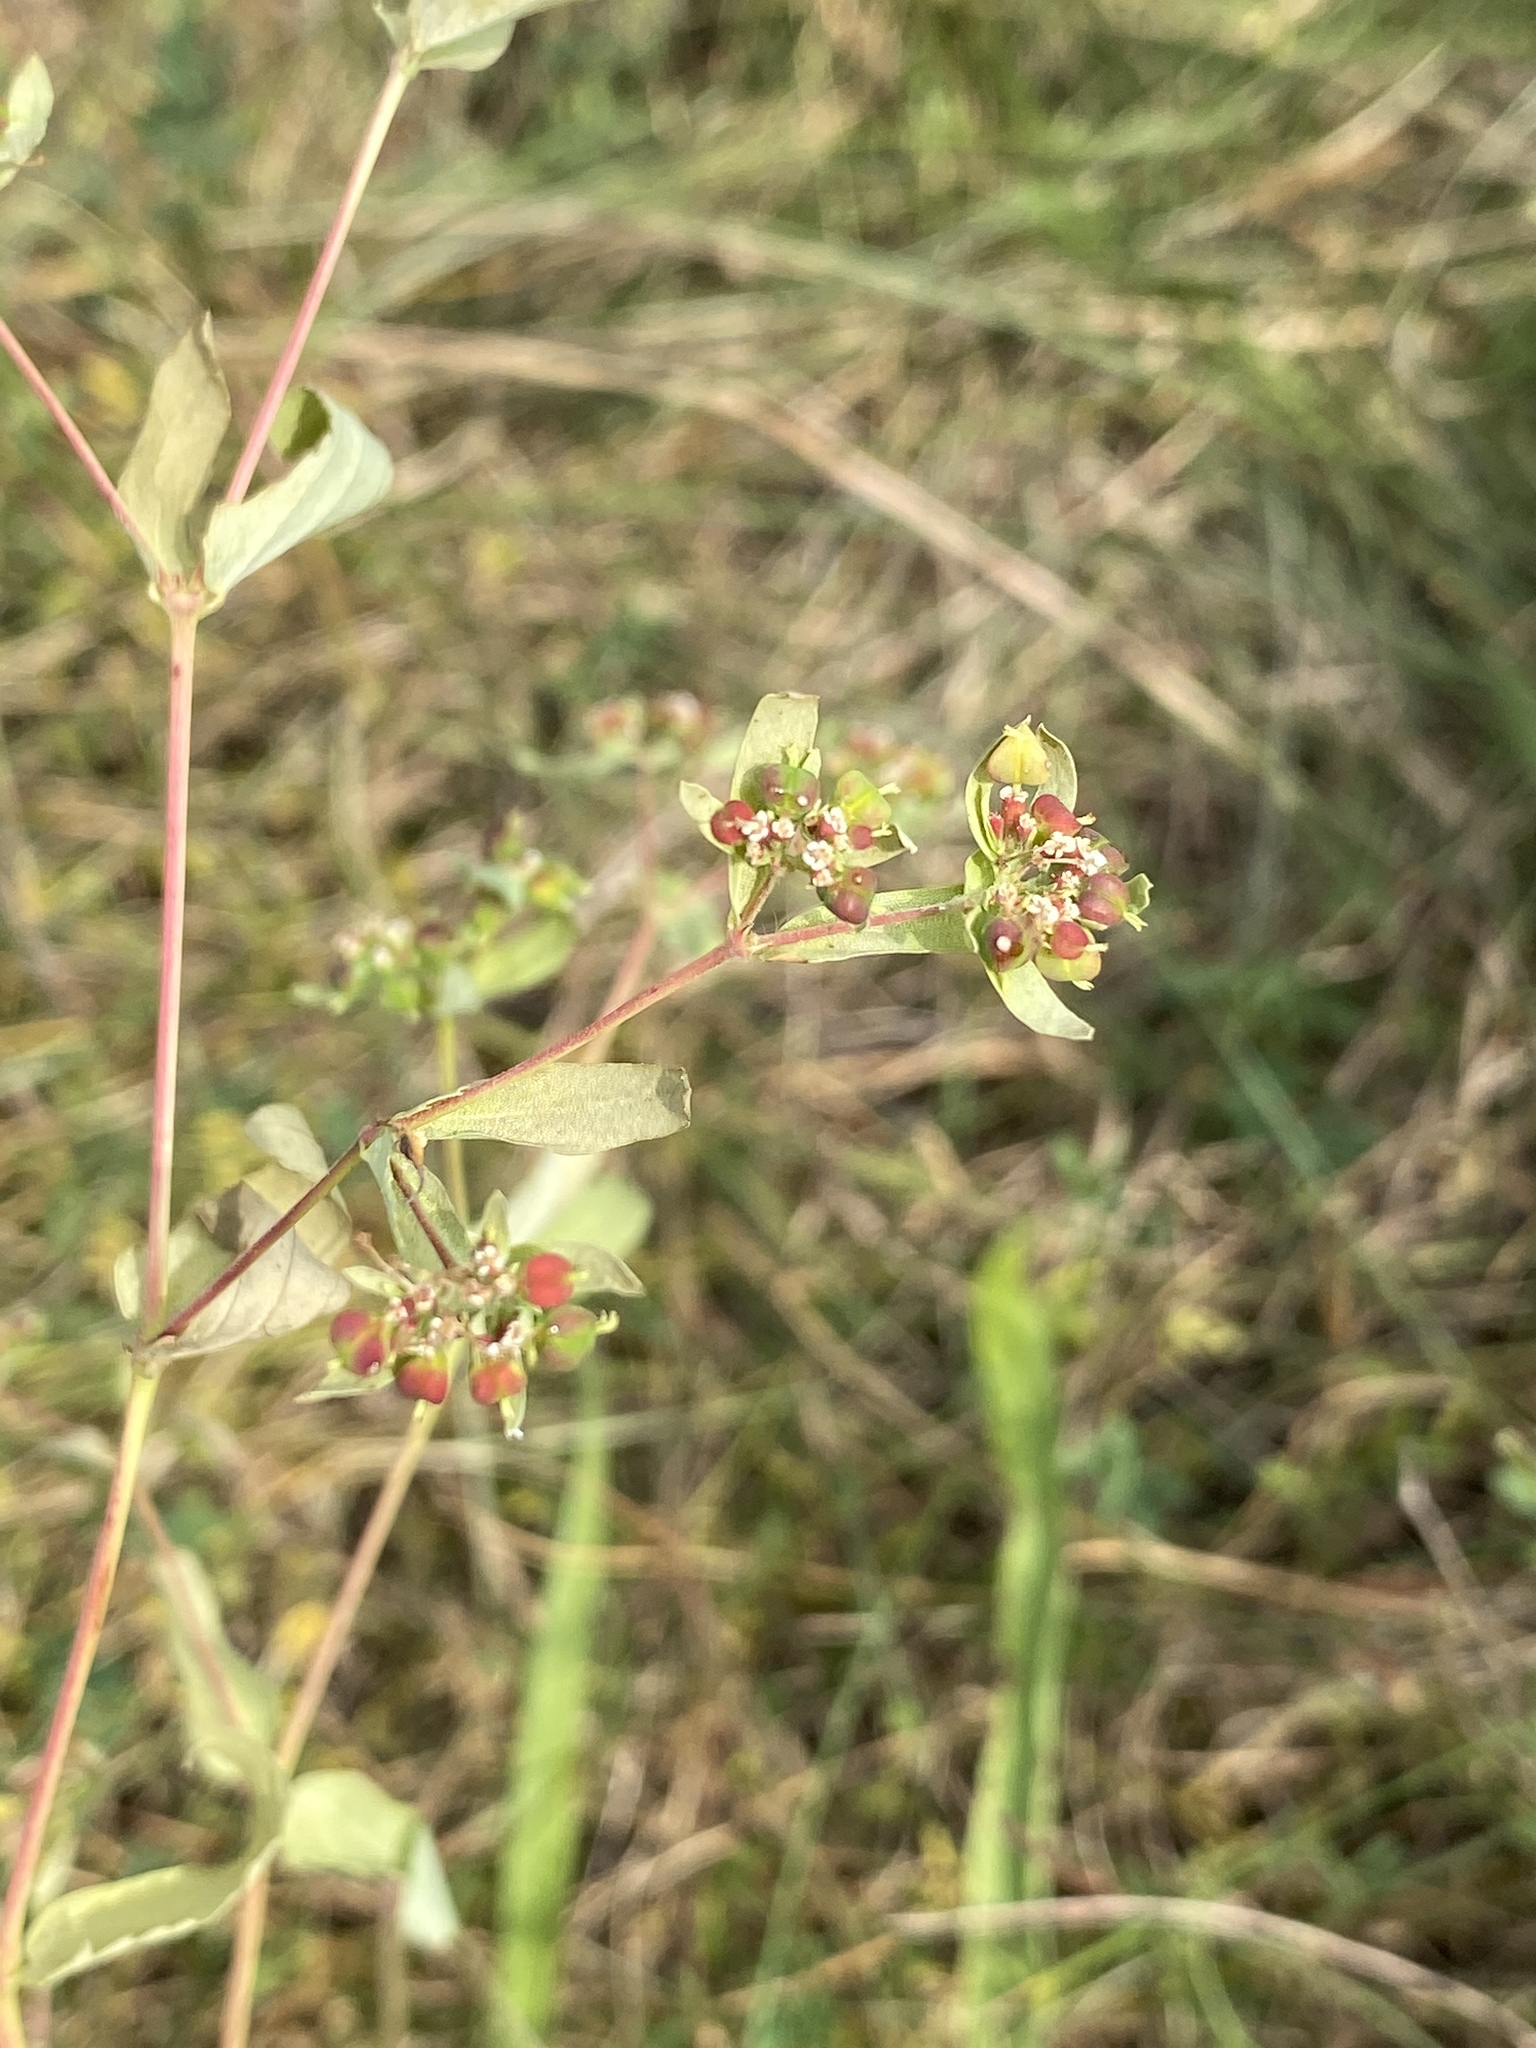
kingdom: Plantae
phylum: Tracheophyta
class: Magnoliopsida
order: Malpighiales
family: Euphorbiaceae
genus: Euphorbia
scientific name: Euphorbia nutans
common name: Eyebane
